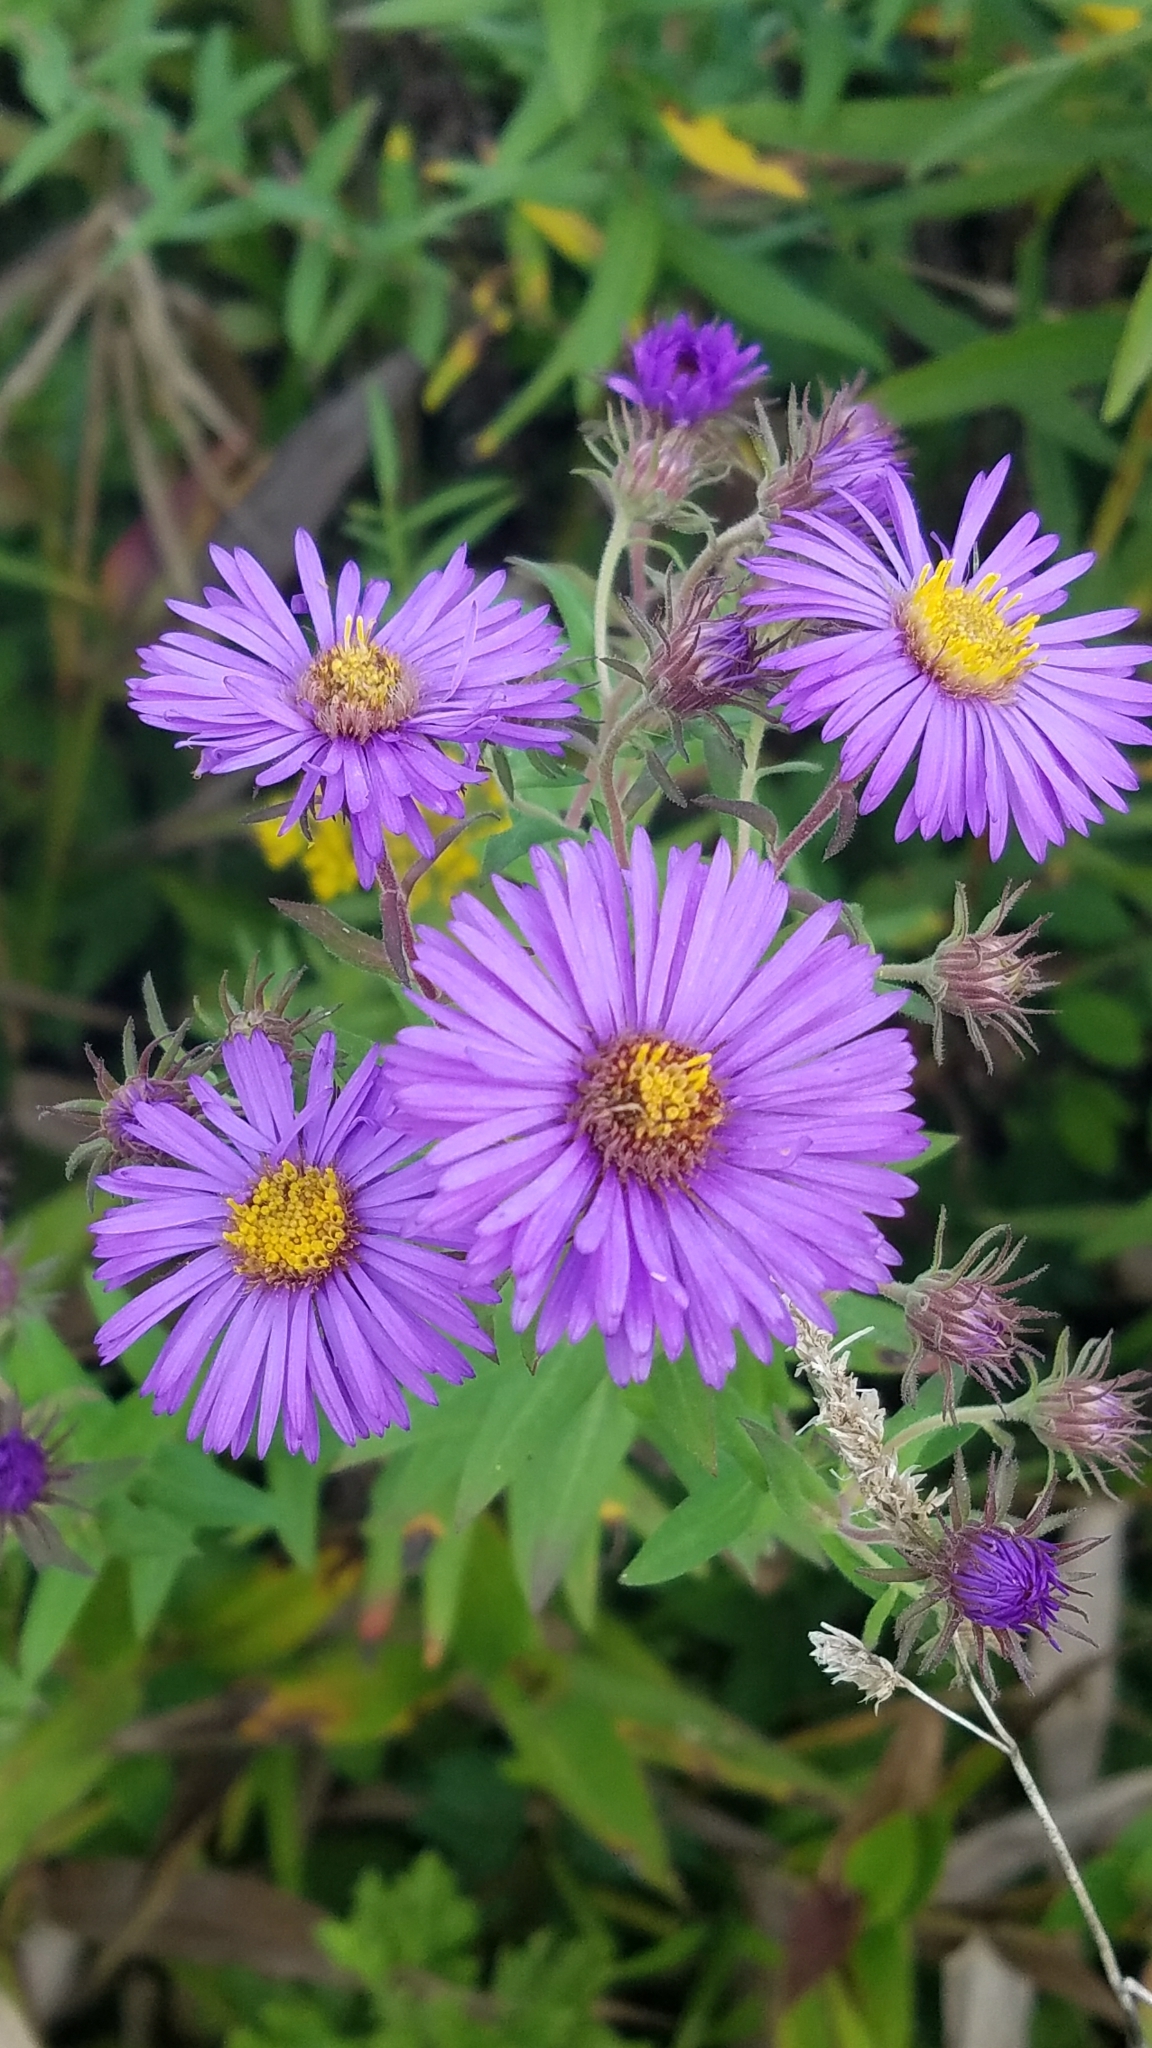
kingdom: Plantae
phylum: Tracheophyta
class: Magnoliopsida
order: Asterales
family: Asteraceae
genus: Symphyotrichum
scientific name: Symphyotrichum novae-angliae
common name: Michaelmas daisy
